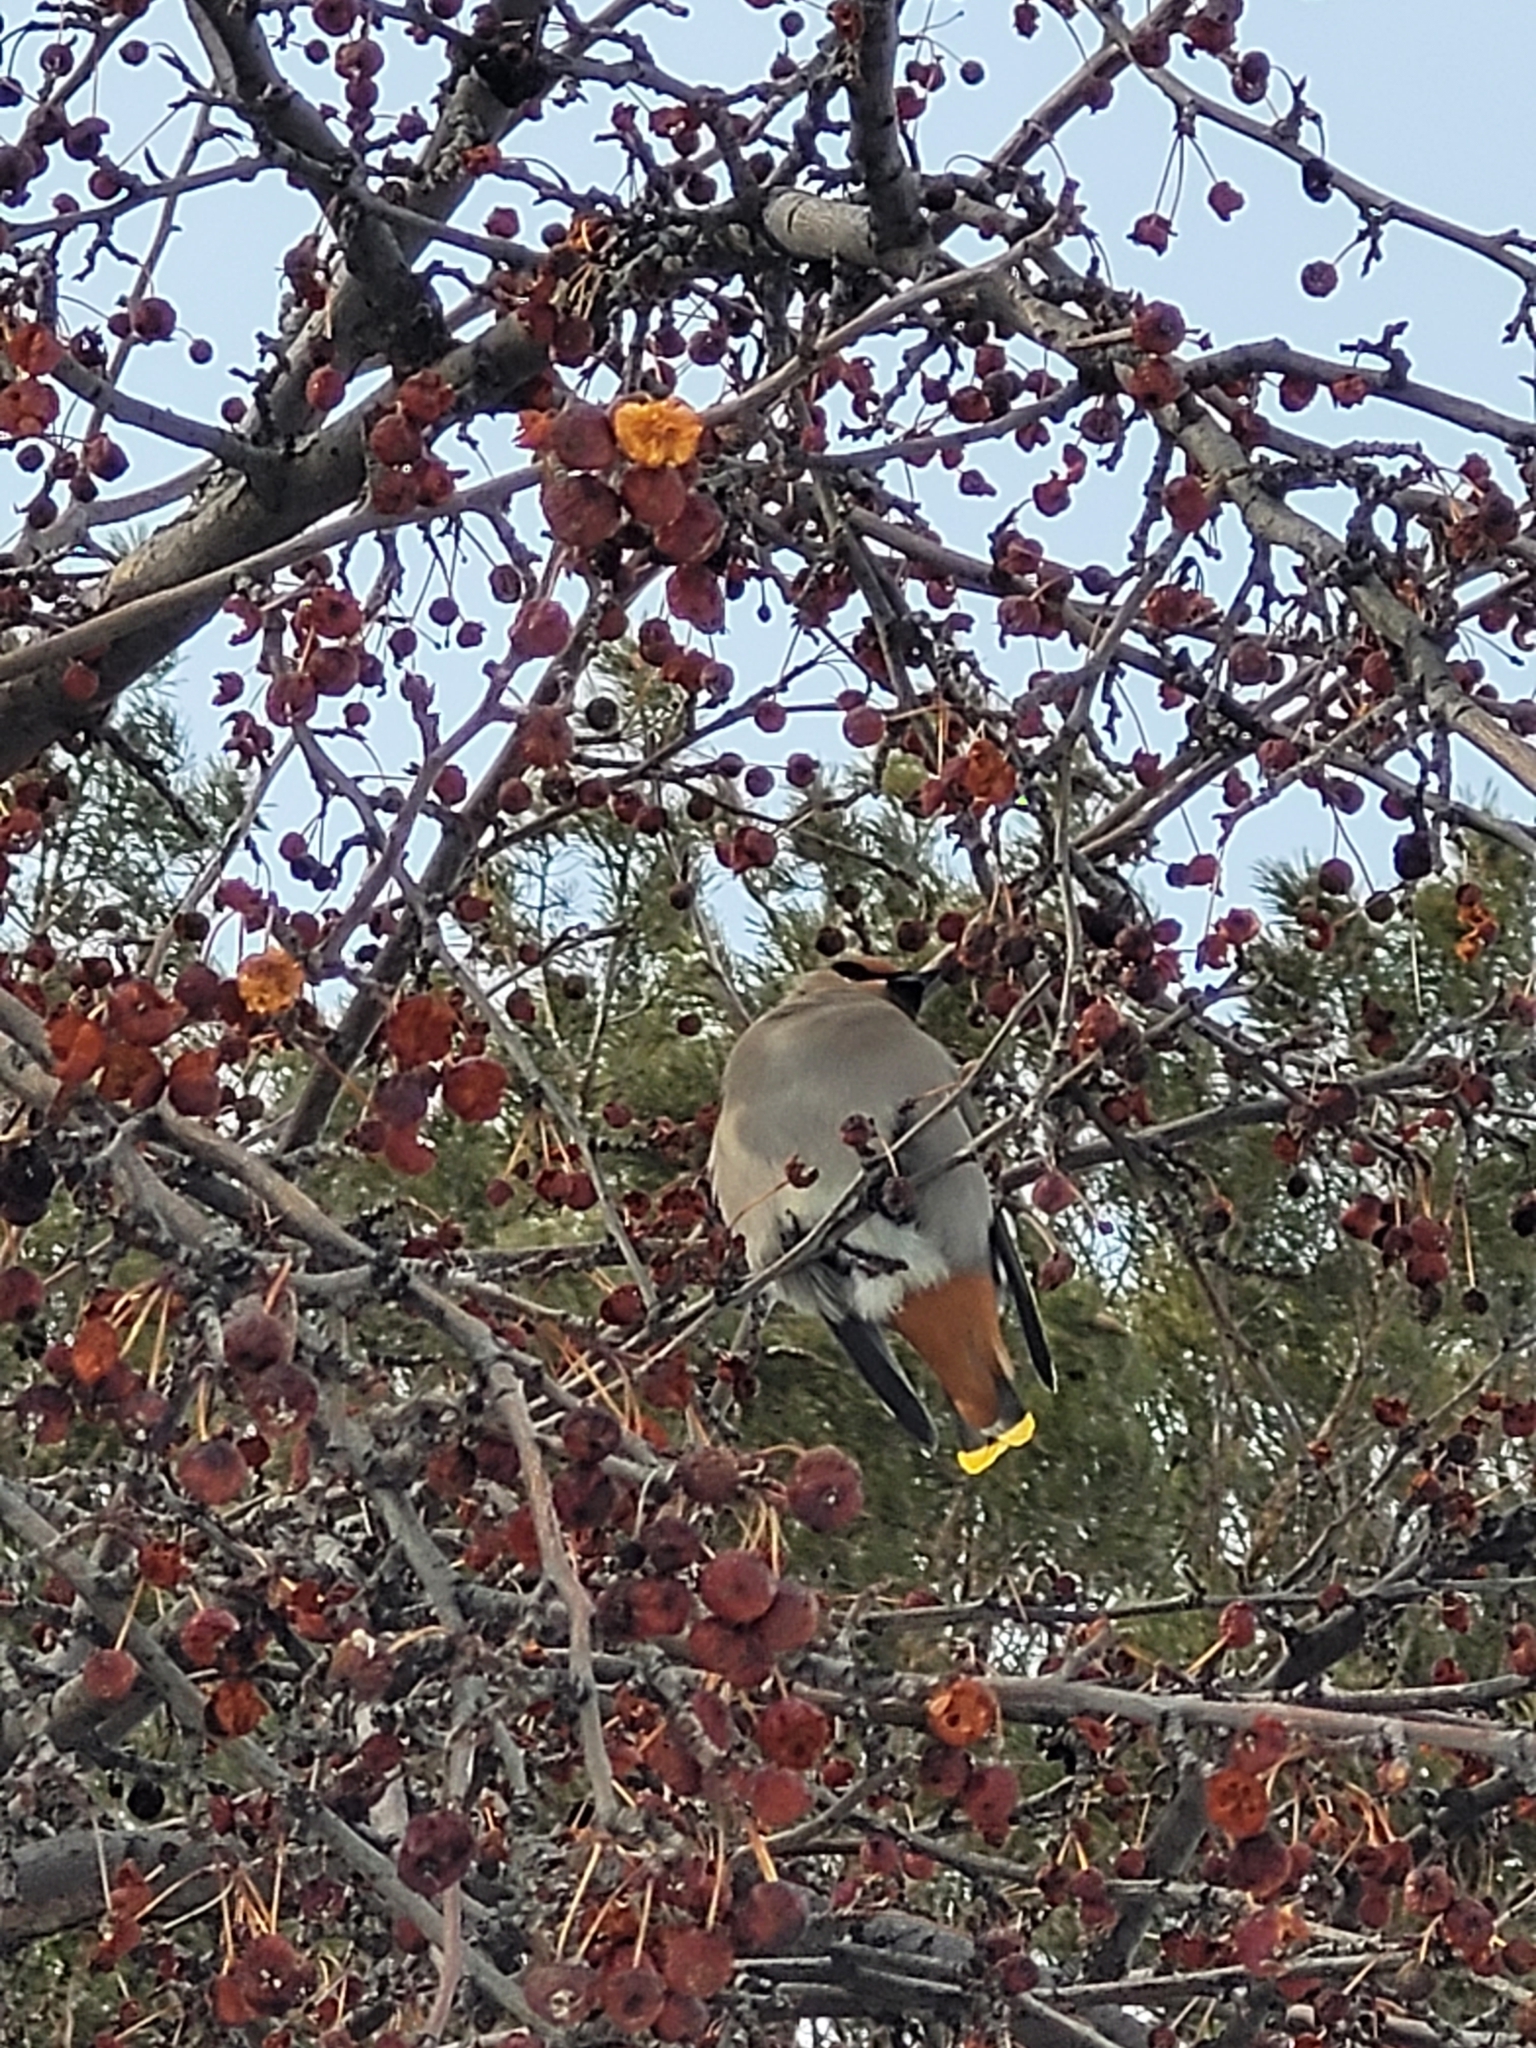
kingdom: Animalia
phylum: Chordata
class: Aves
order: Passeriformes
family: Bombycillidae
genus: Bombycilla
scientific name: Bombycilla garrulus
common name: Bohemian waxwing
